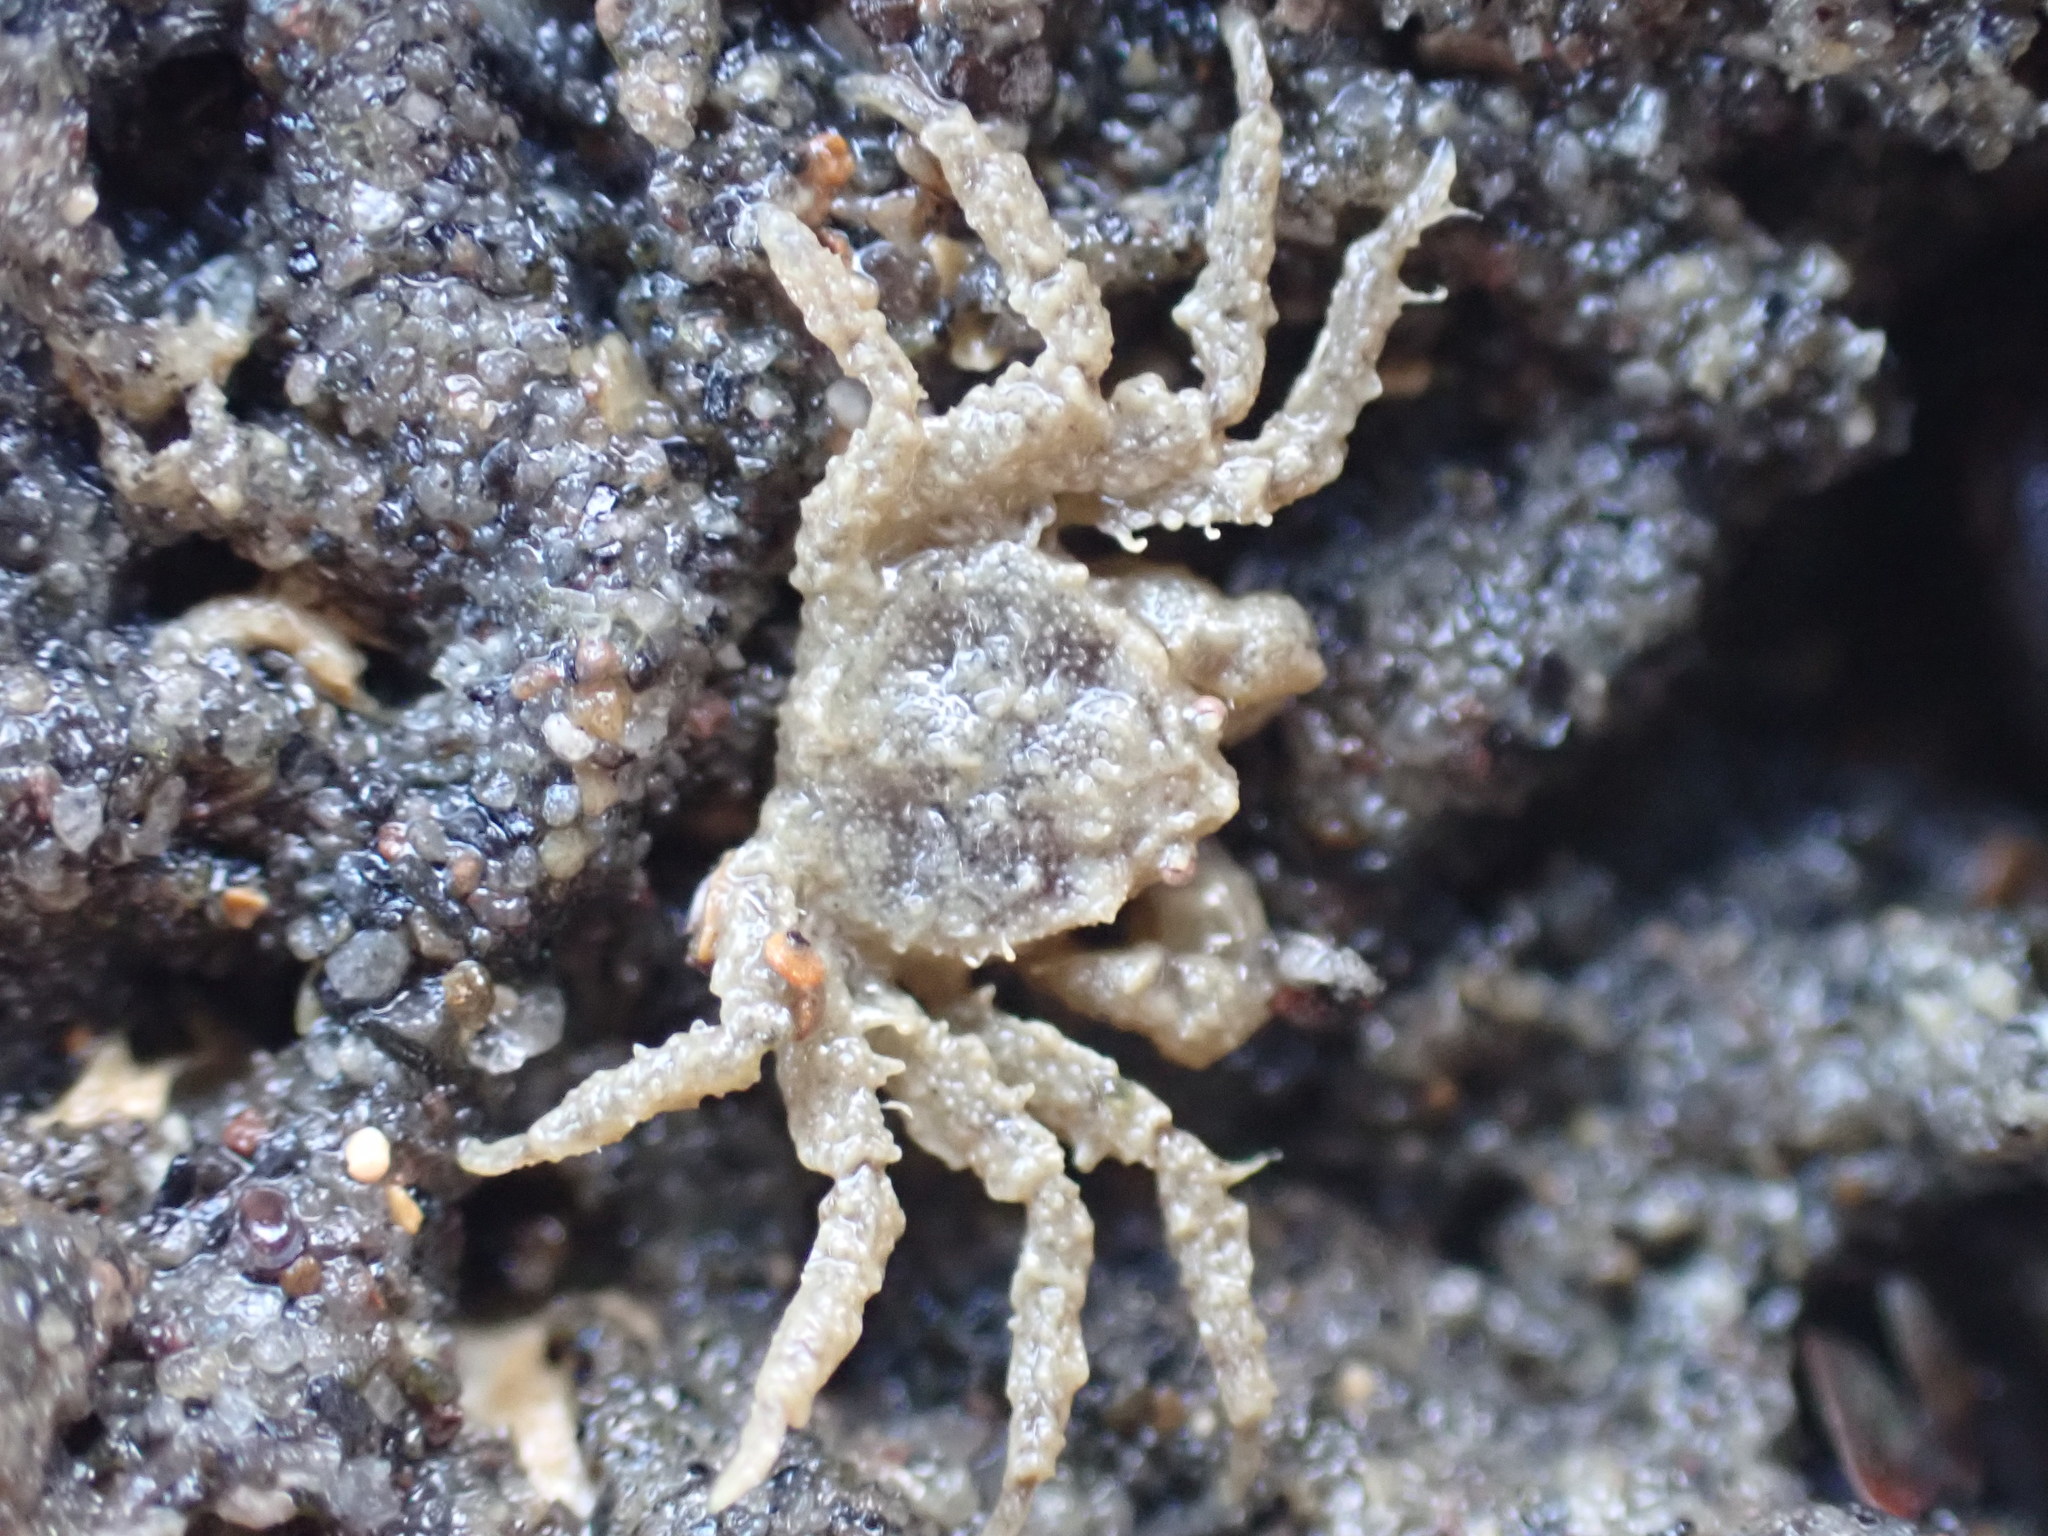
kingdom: Animalia
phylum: Arthropoda
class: Malacostraca
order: Decapoda
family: Hymenosomatidae
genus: Neohymenicus
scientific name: Neohymenicus pubescens
